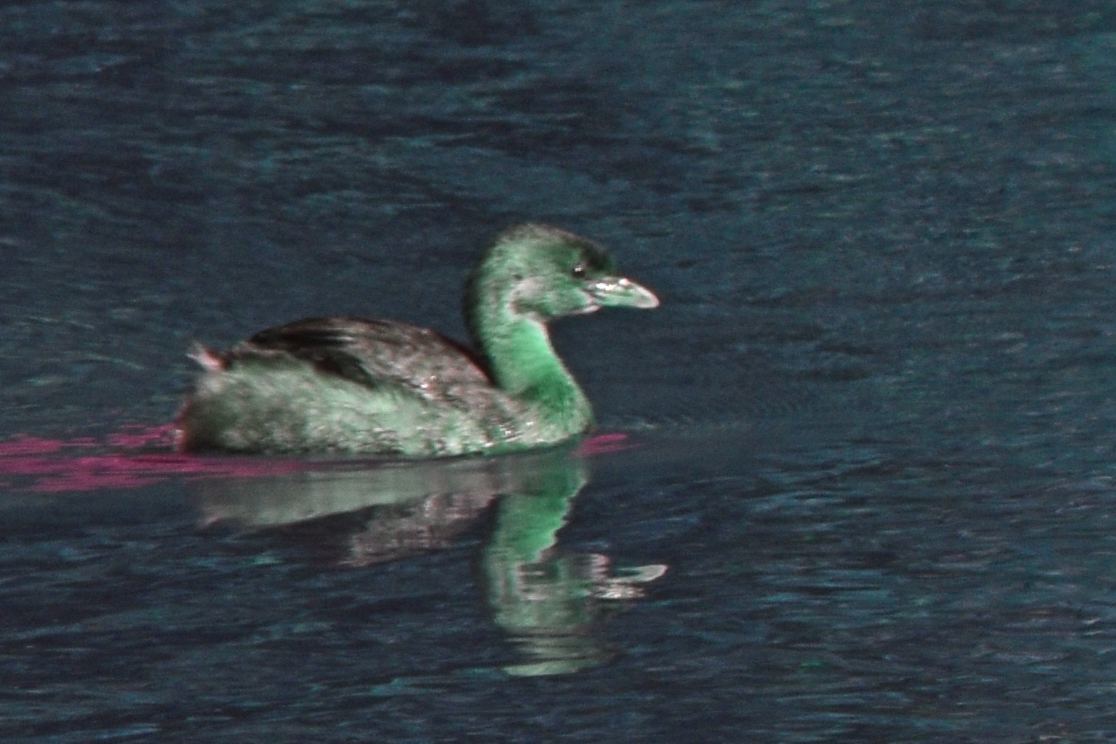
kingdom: Animalia
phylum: Chordata
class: Aves
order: Podicipediformes
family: Podicipedidae
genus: Podilymbus
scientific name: Podilymbus podiceps
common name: Pied-billed grebe
